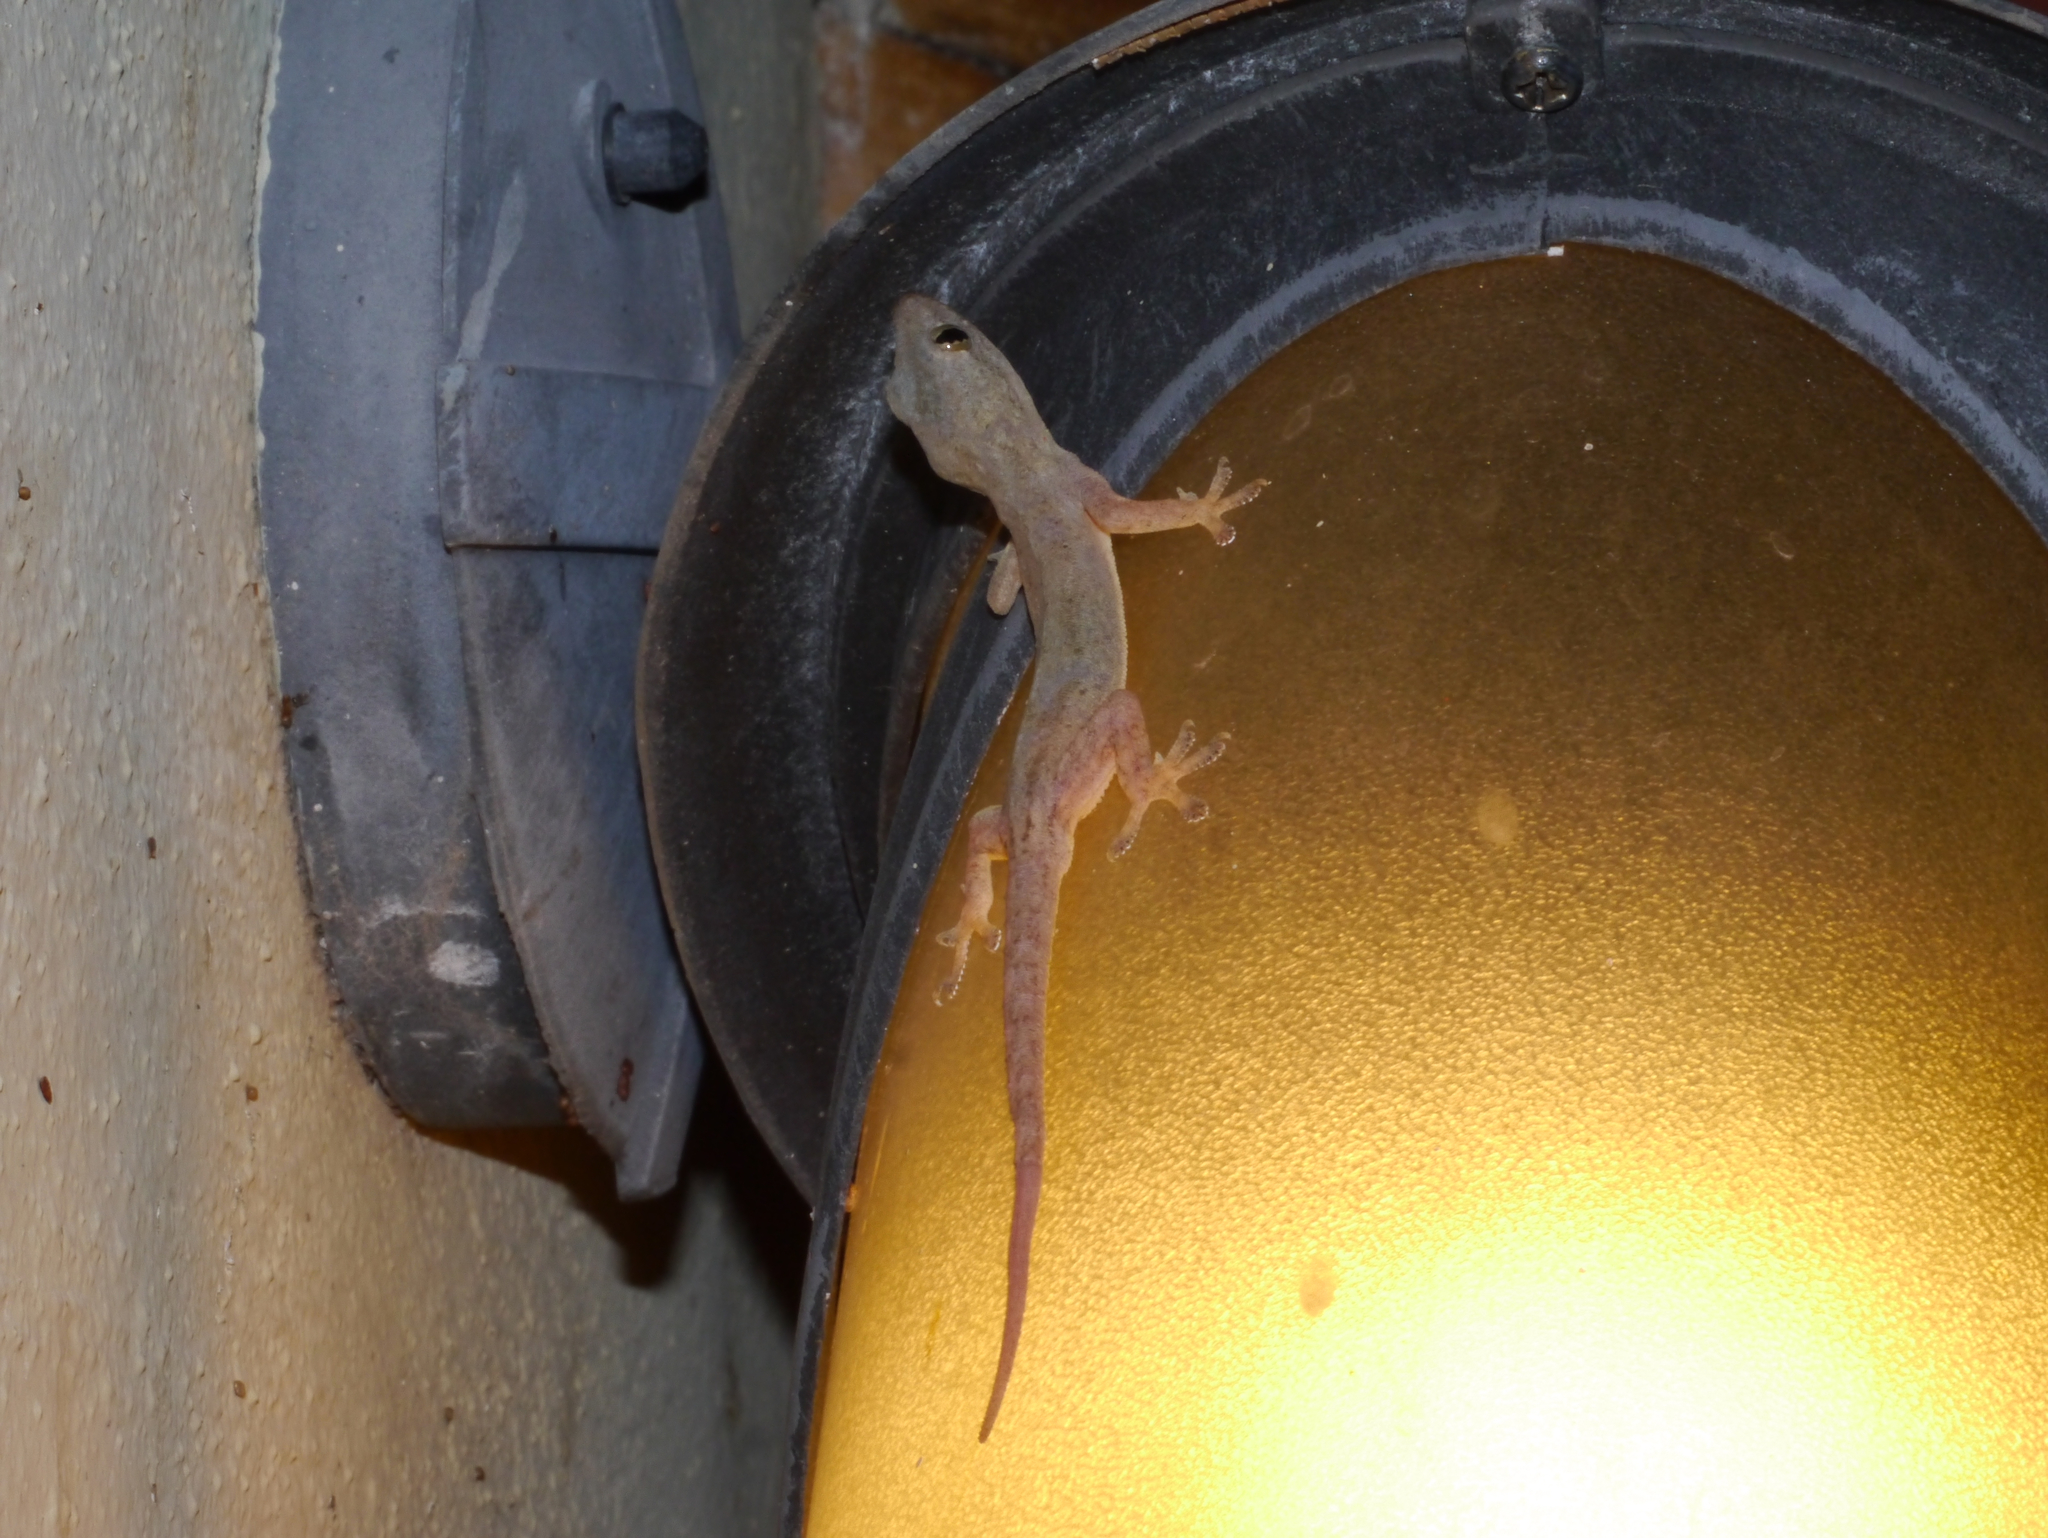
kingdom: Animalia
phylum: Chordata
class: Squamata
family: Gekkonidae
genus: Hemidactylus
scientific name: Hemidactylus frenatus
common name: Common house gecko
